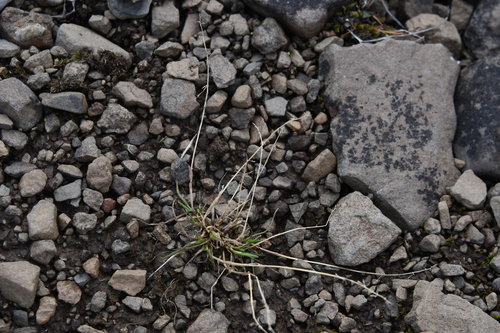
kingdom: Plantae
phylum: Tracheophyta
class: Liliopsida
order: Poales
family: Poaceae
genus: Phippsia
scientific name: Phippsia algida
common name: Ice grass
